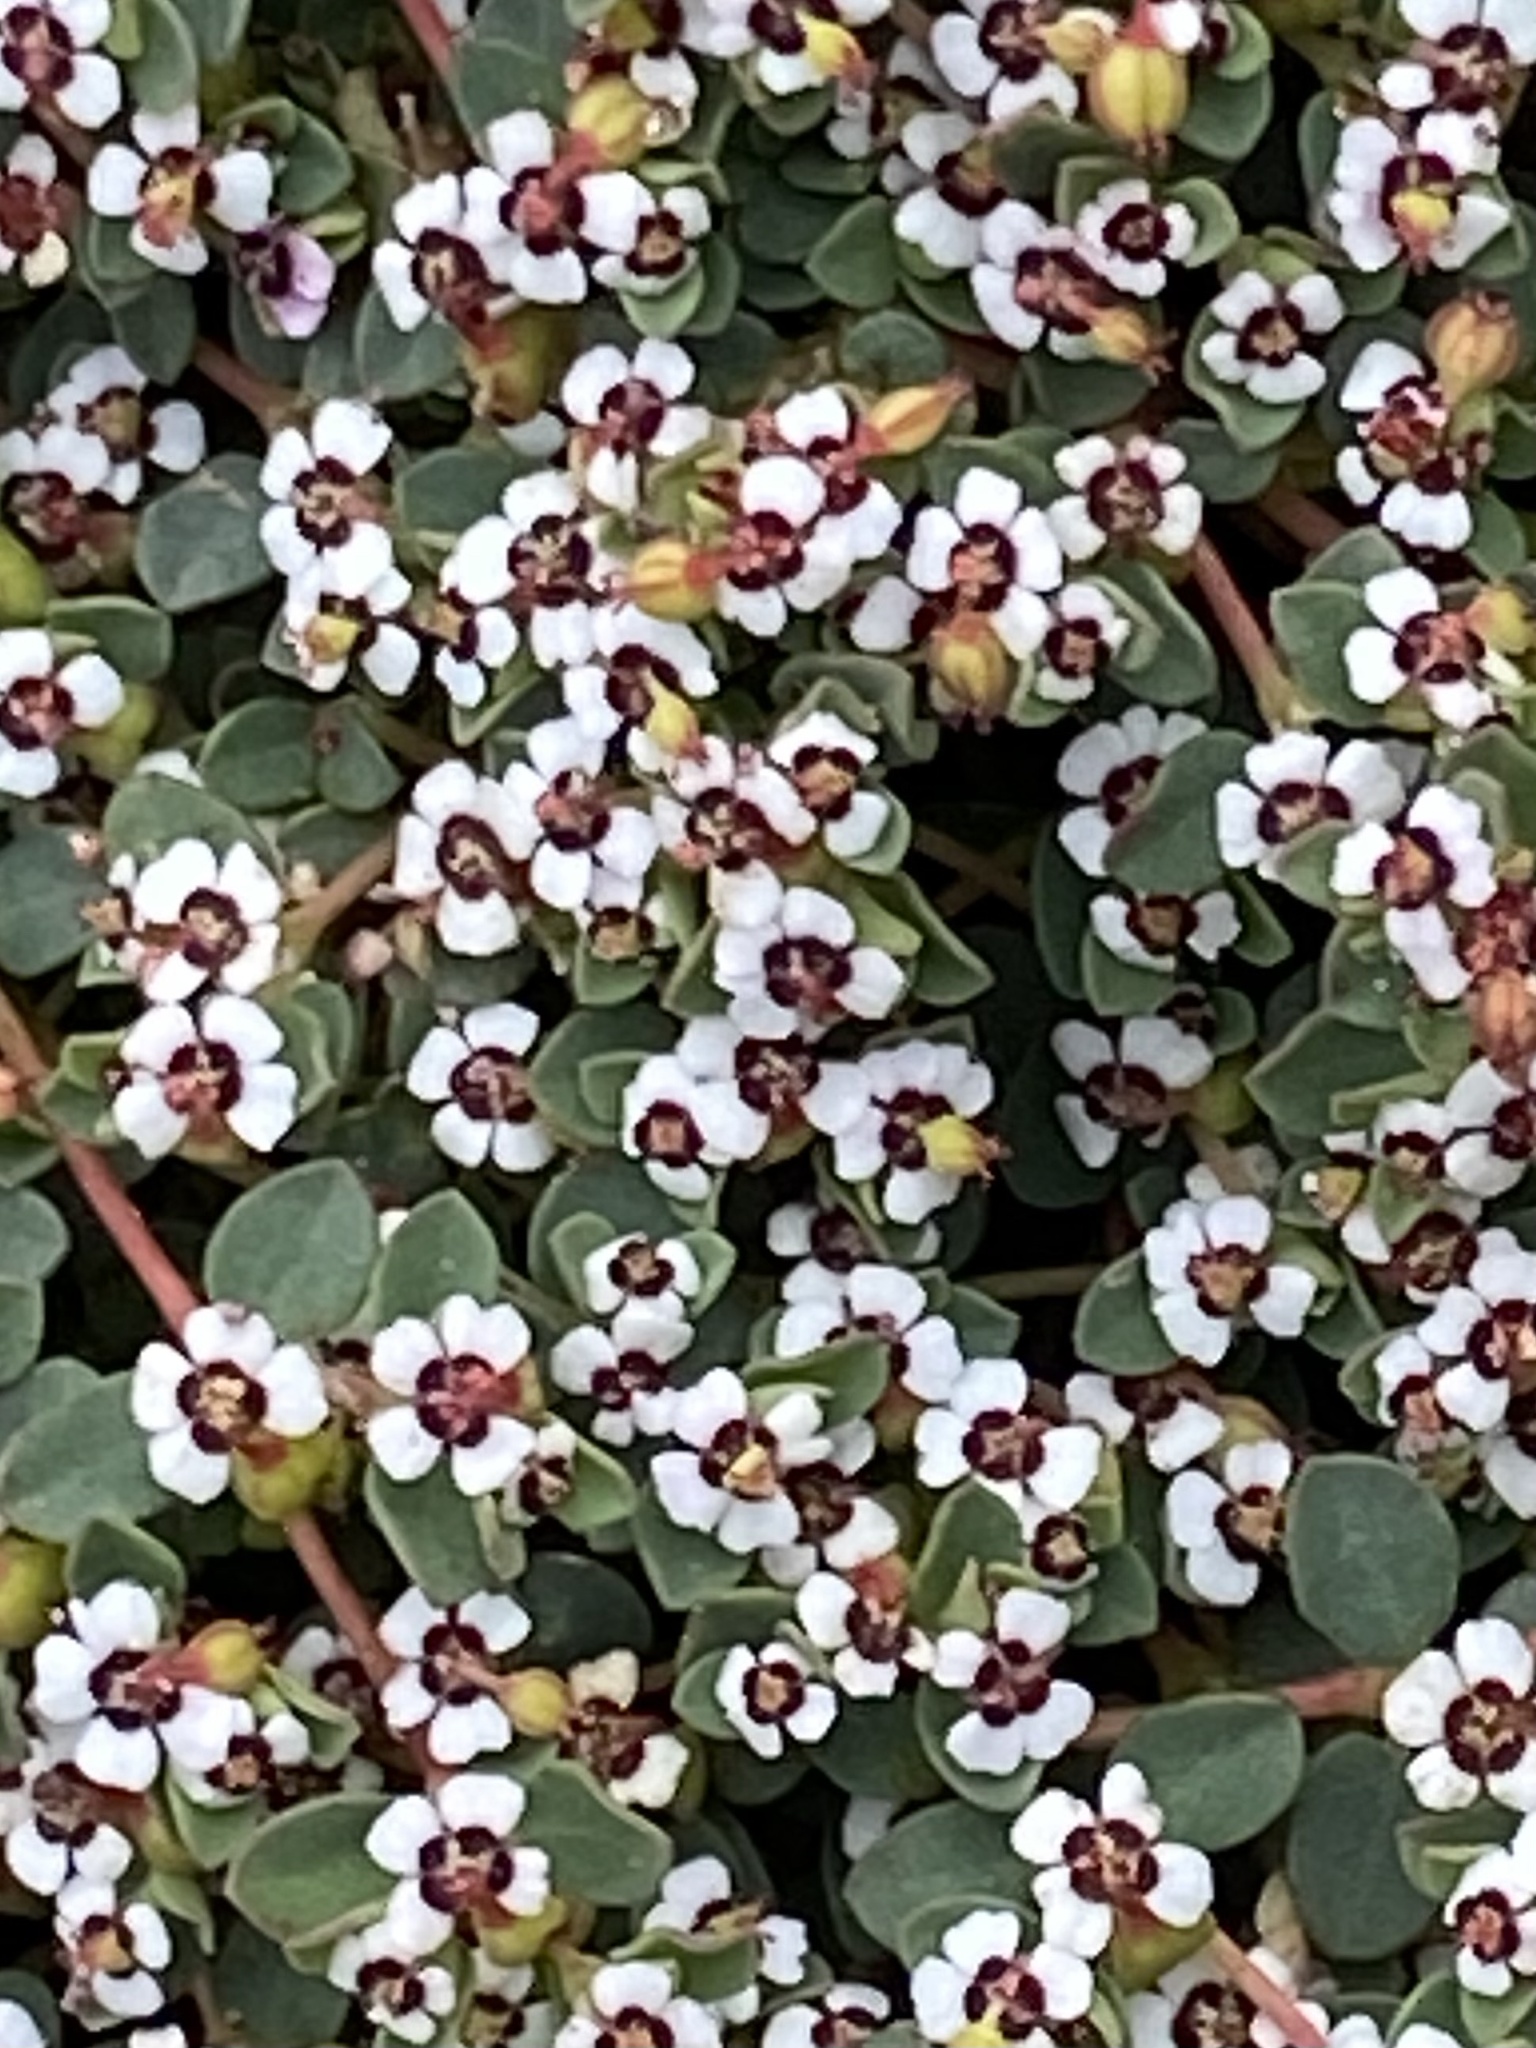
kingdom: Plantae
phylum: Tracheophyta
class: Magnoliopsida
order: Malpighiales
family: Euphorbiaceae
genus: Euphorbia
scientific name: Euphorbia polycarpa
